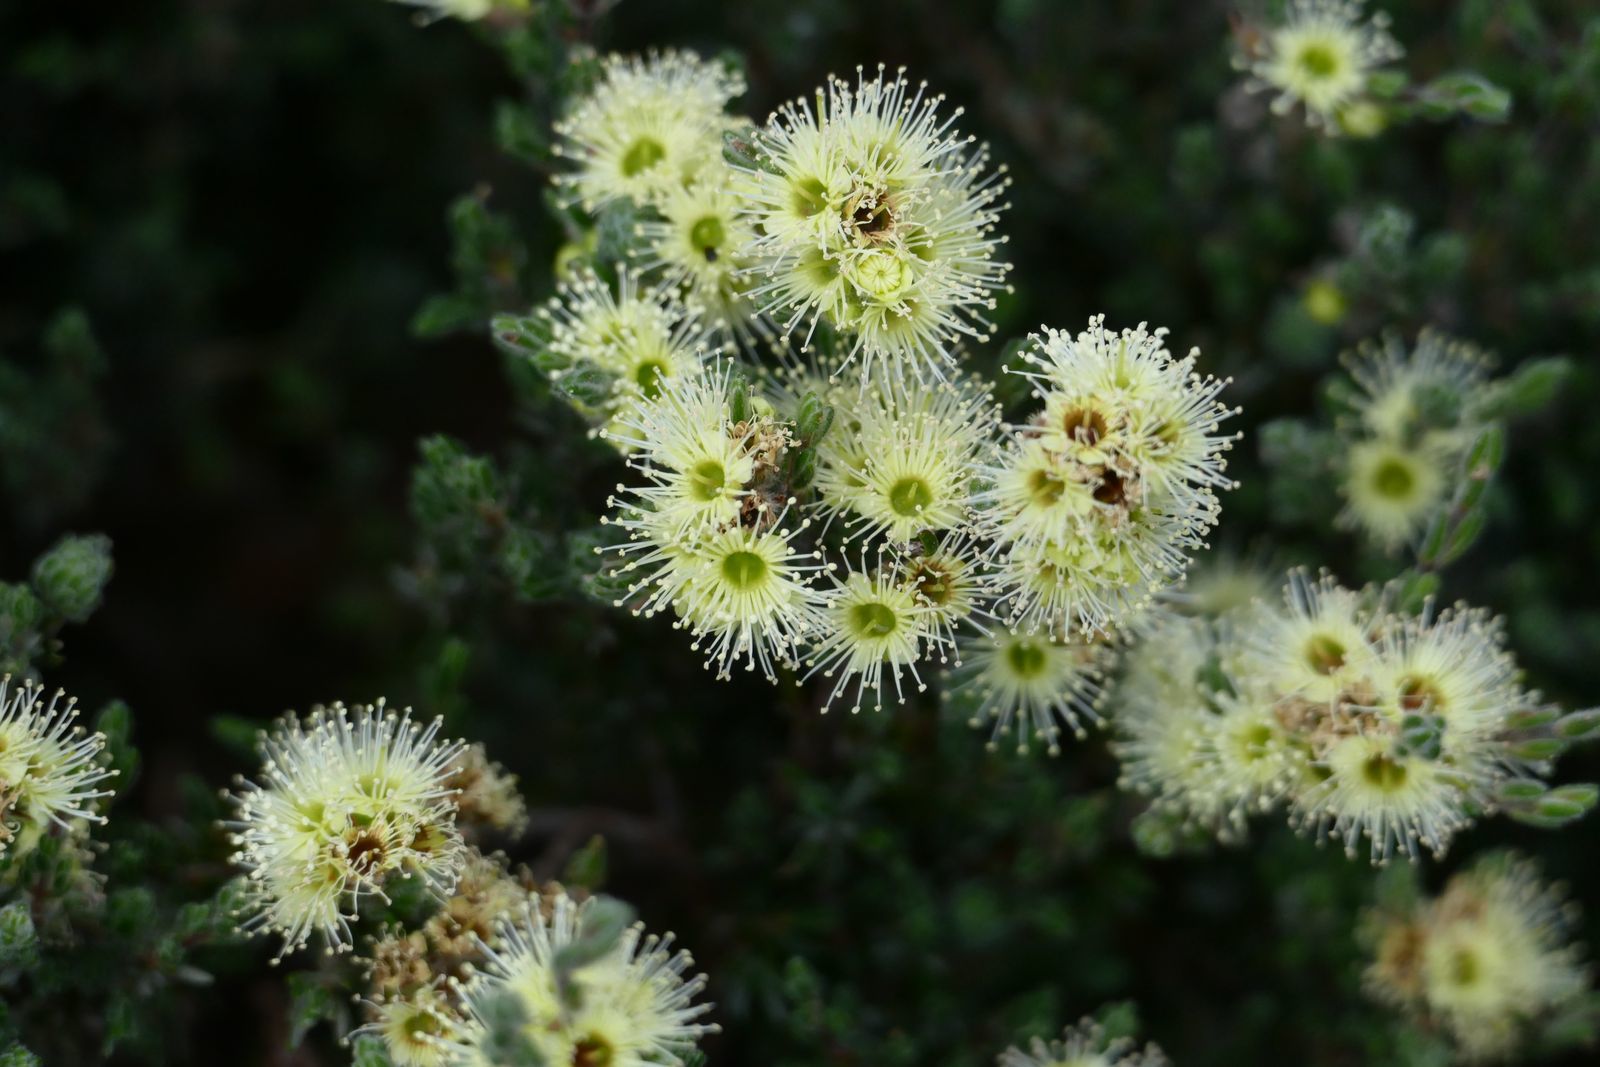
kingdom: Plantae
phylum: Tracheophyta
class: Magnoliopsida
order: Myrtales
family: Myrtaceae
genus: Kunzea
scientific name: Kunzea muelleri
